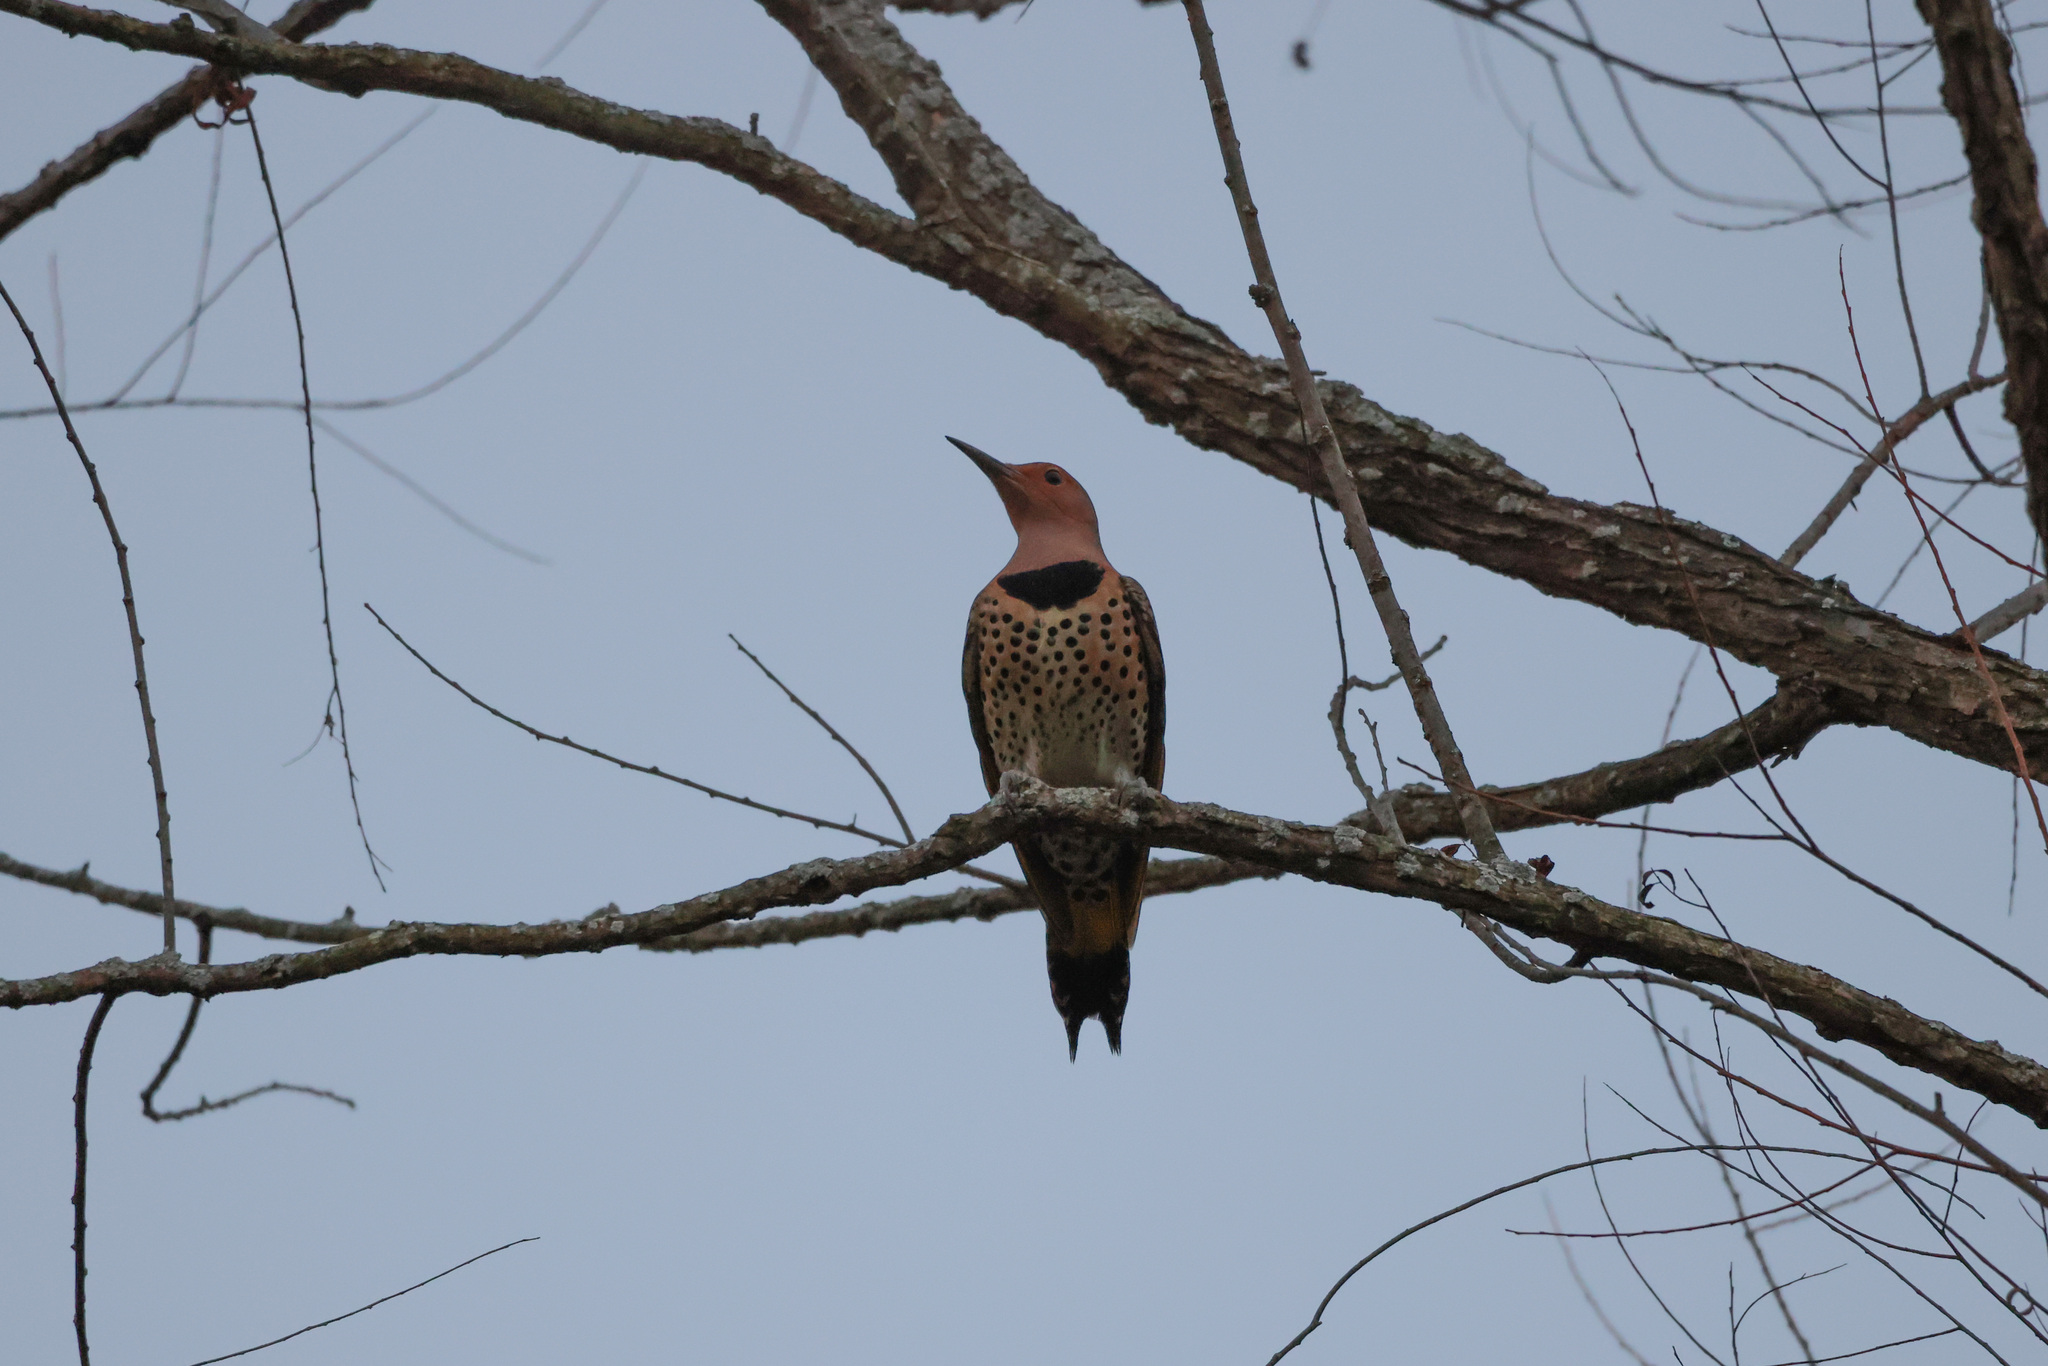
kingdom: Animalia
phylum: Chordata
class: Aves
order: Piciformes
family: Picidae
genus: Colaptes
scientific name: Colaptes auratus
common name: Northern flicker
